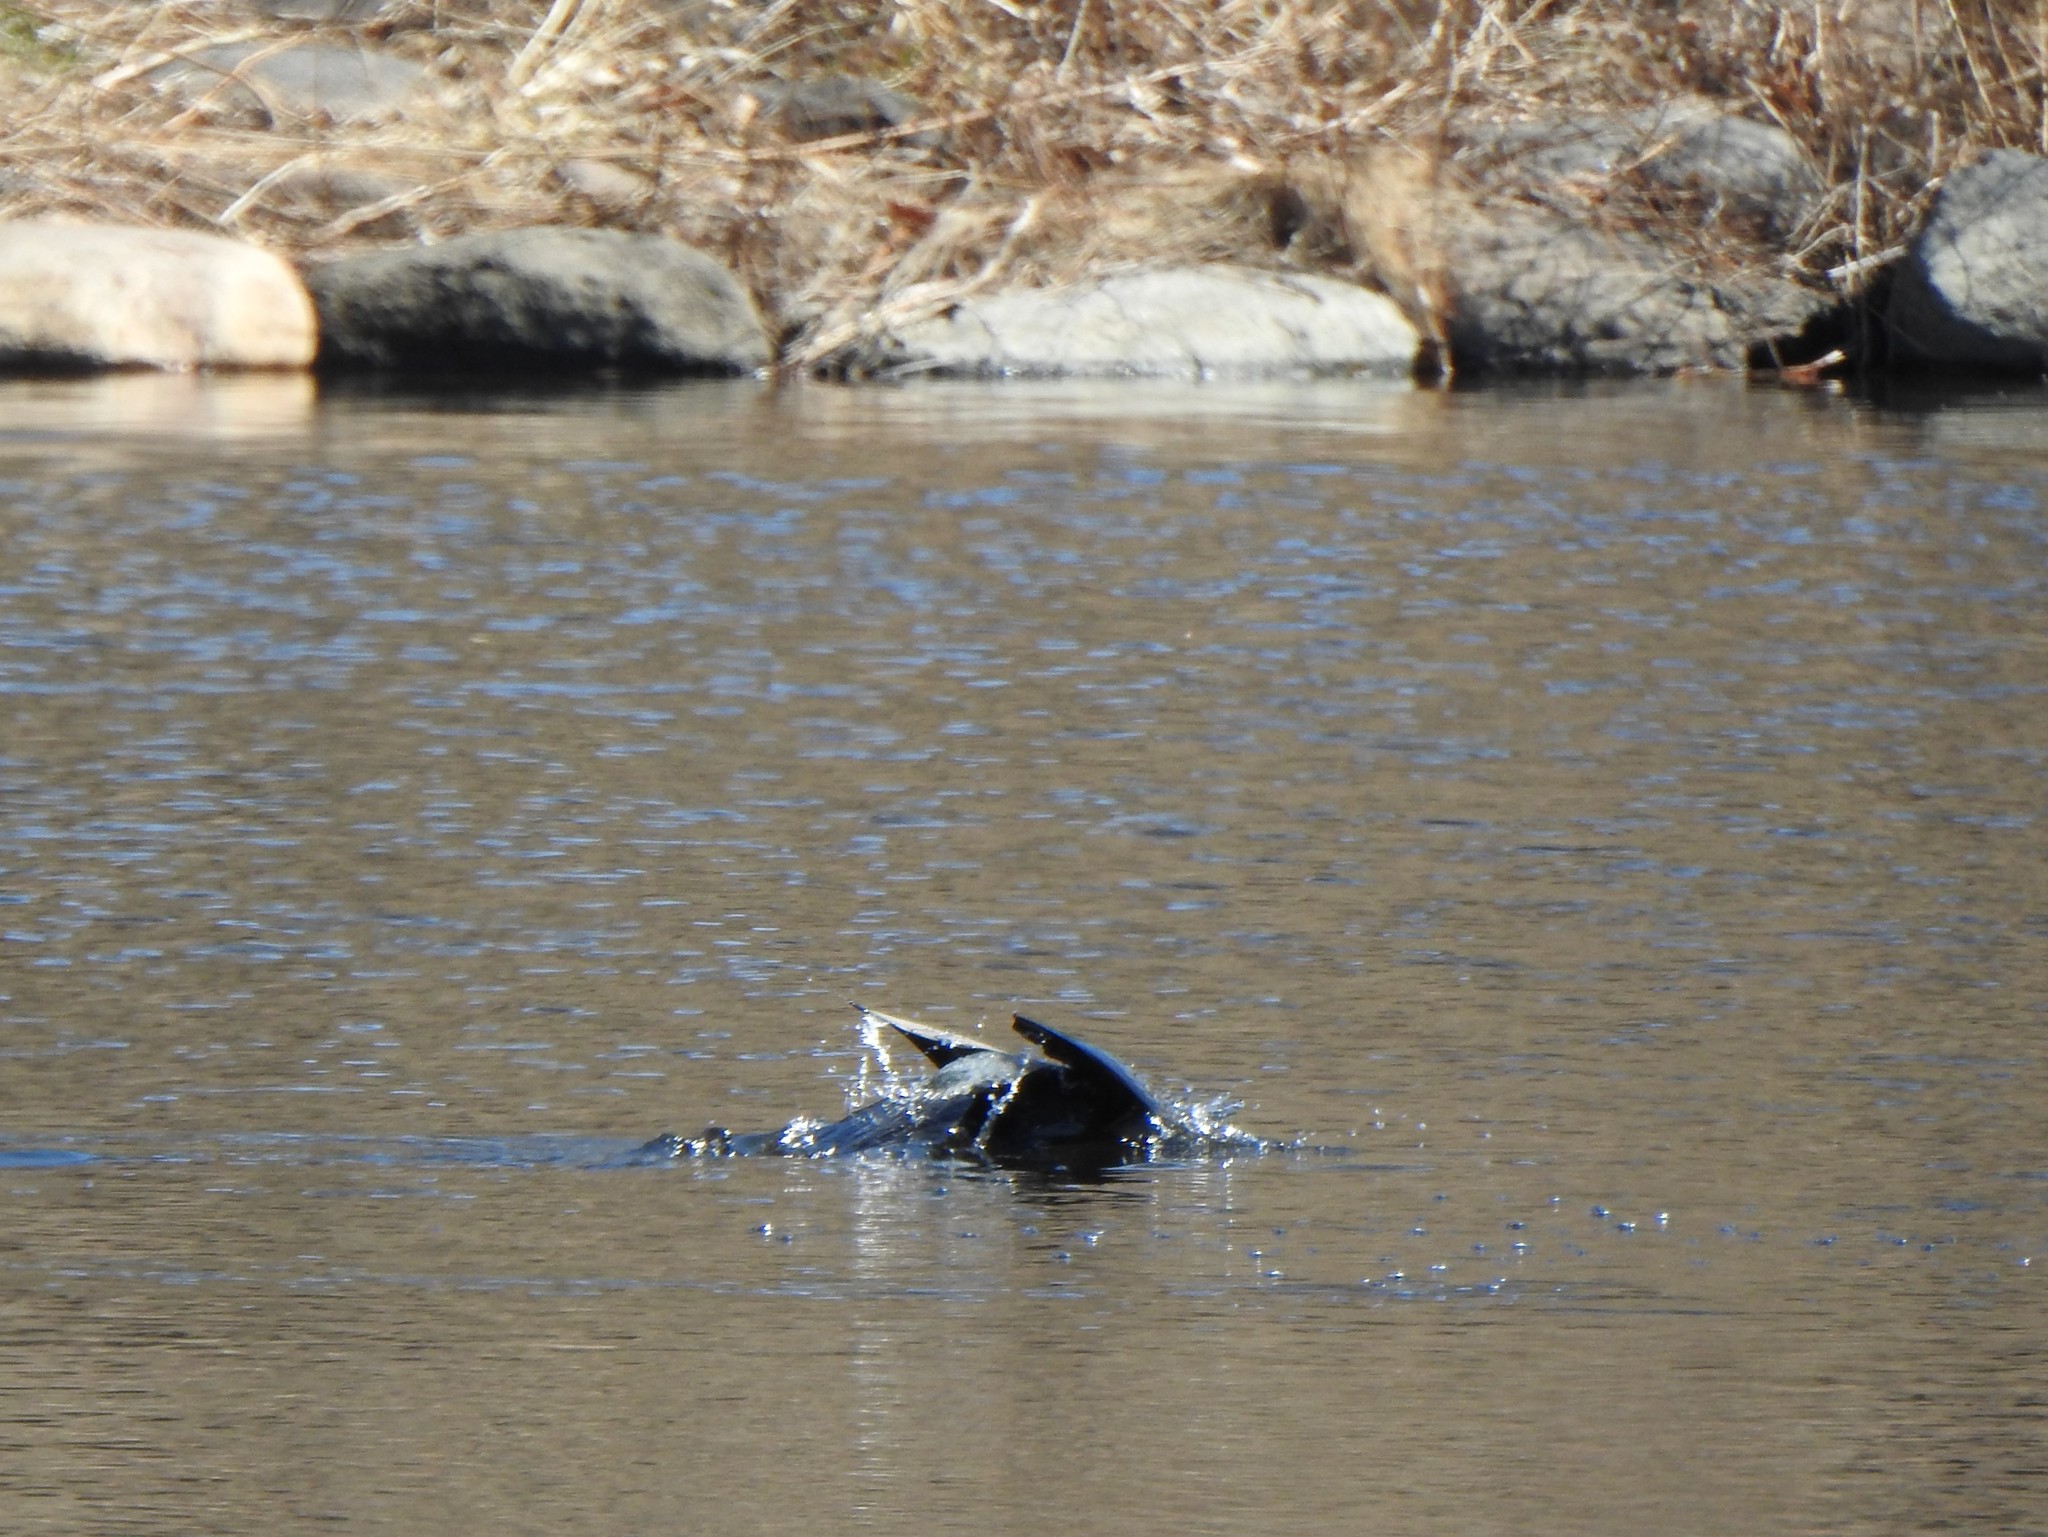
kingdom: Animalia
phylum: Chordata
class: Aves
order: Suliformes
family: Phalacrocoracidae
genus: Phalacrocorax
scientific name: Phalacrocorax auritus
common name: Double-crested cormorant
